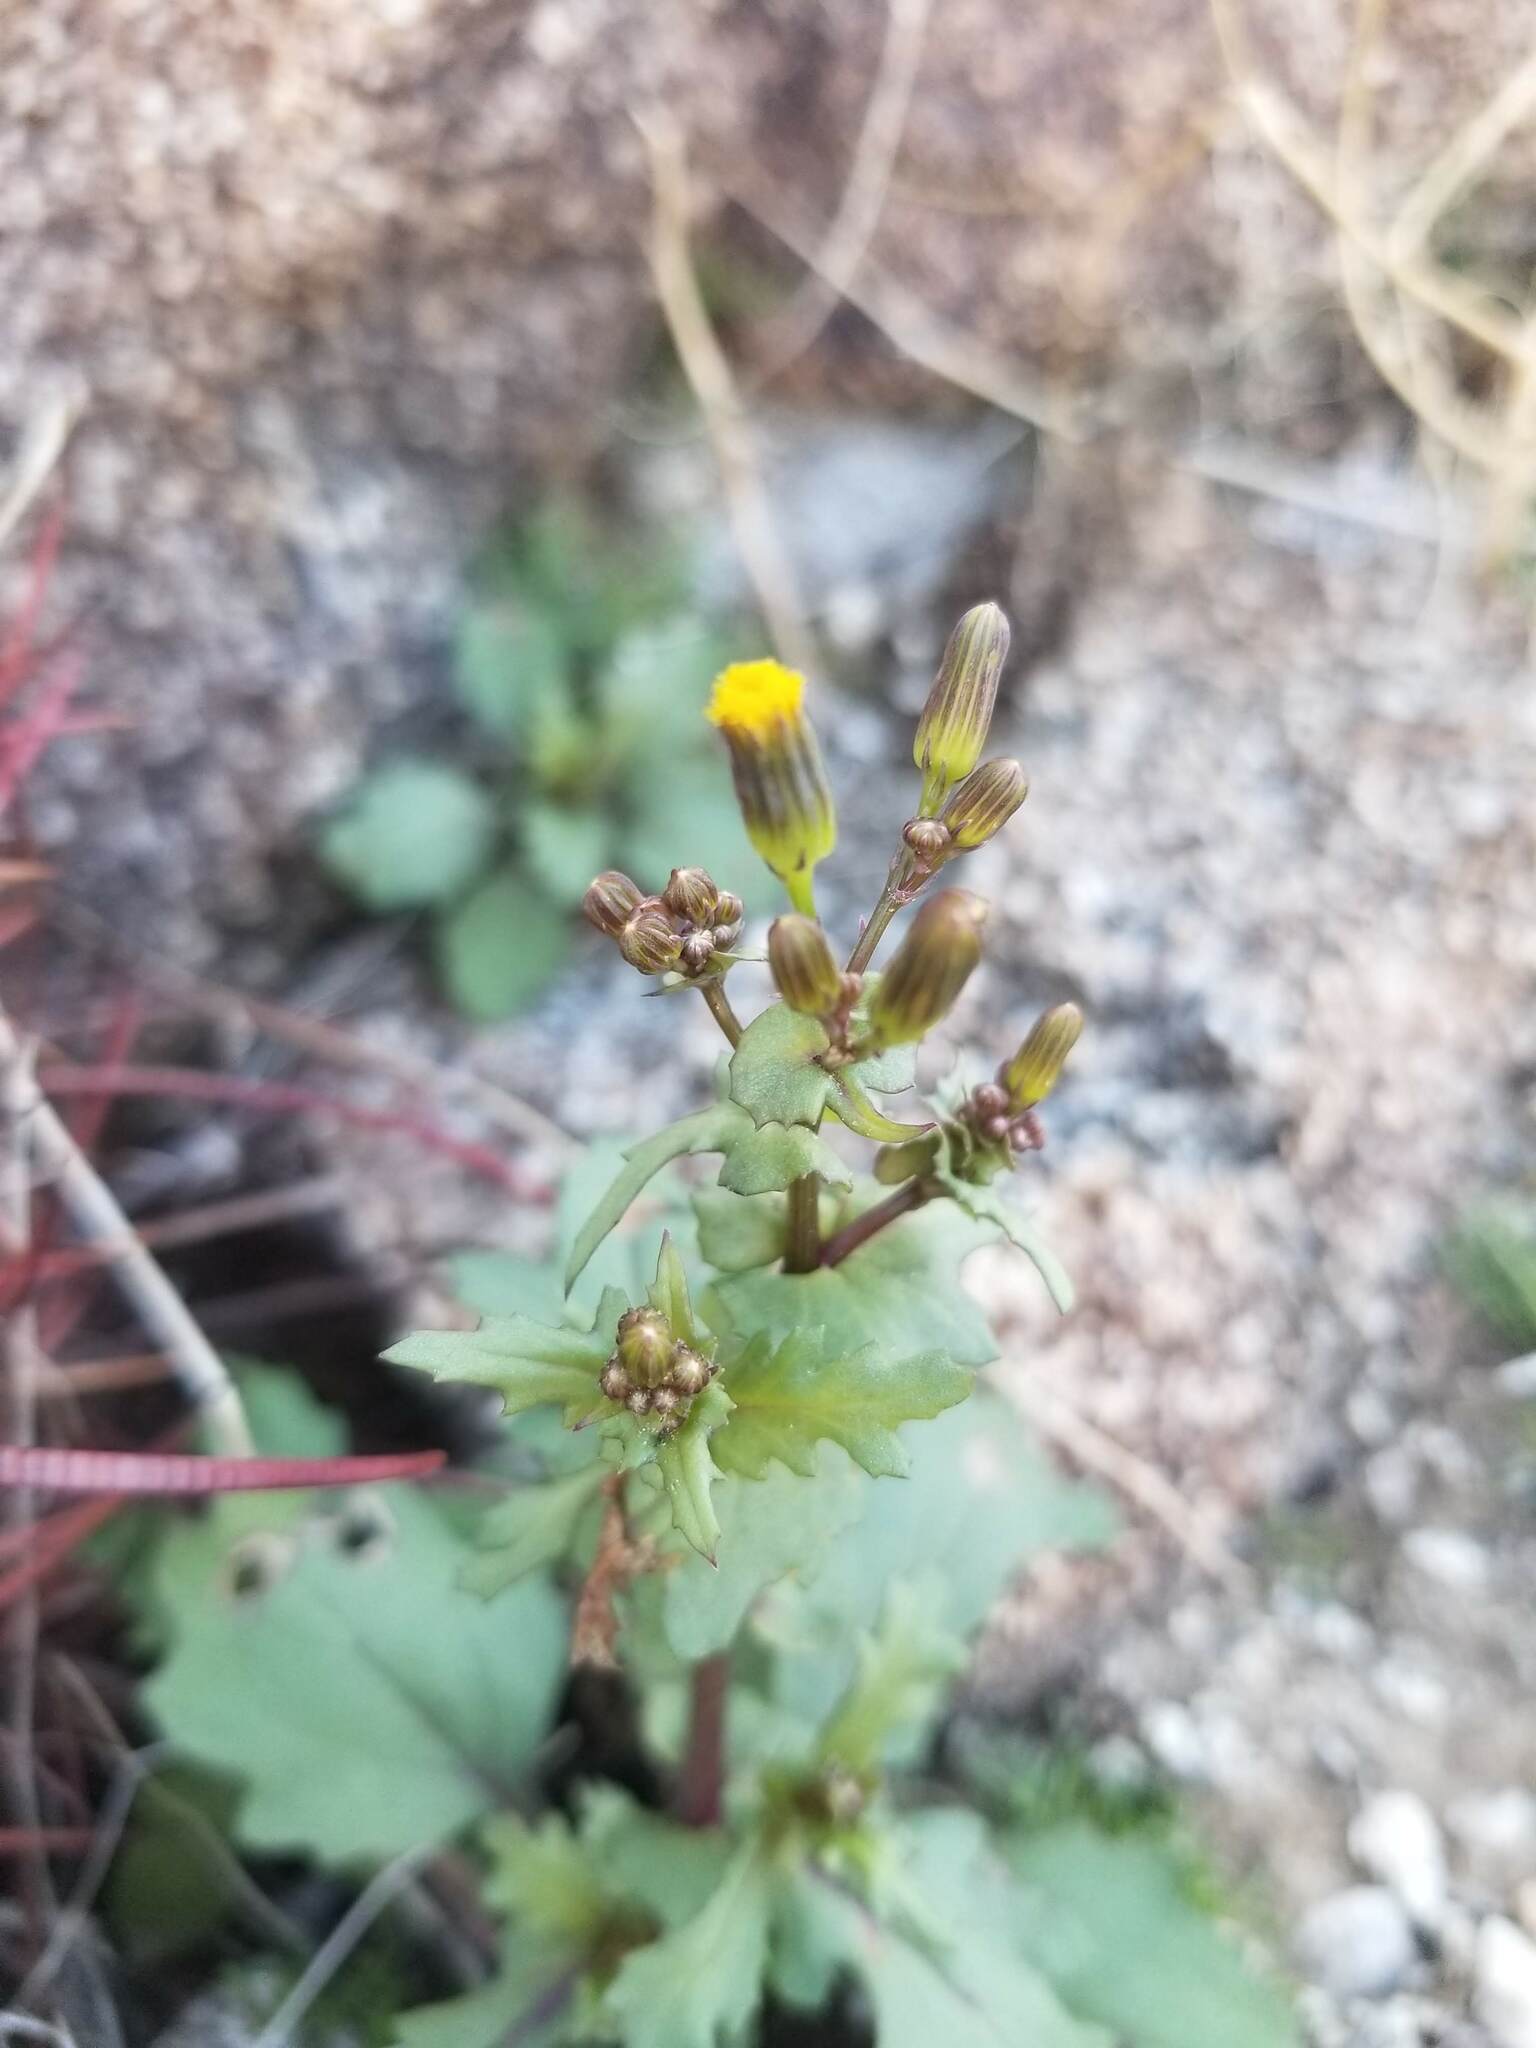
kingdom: Plantae
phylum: Tracheophyta
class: Magnoliopsida
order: Asterales
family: Asteraceae
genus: Senecio
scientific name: Senecio mohavensis
